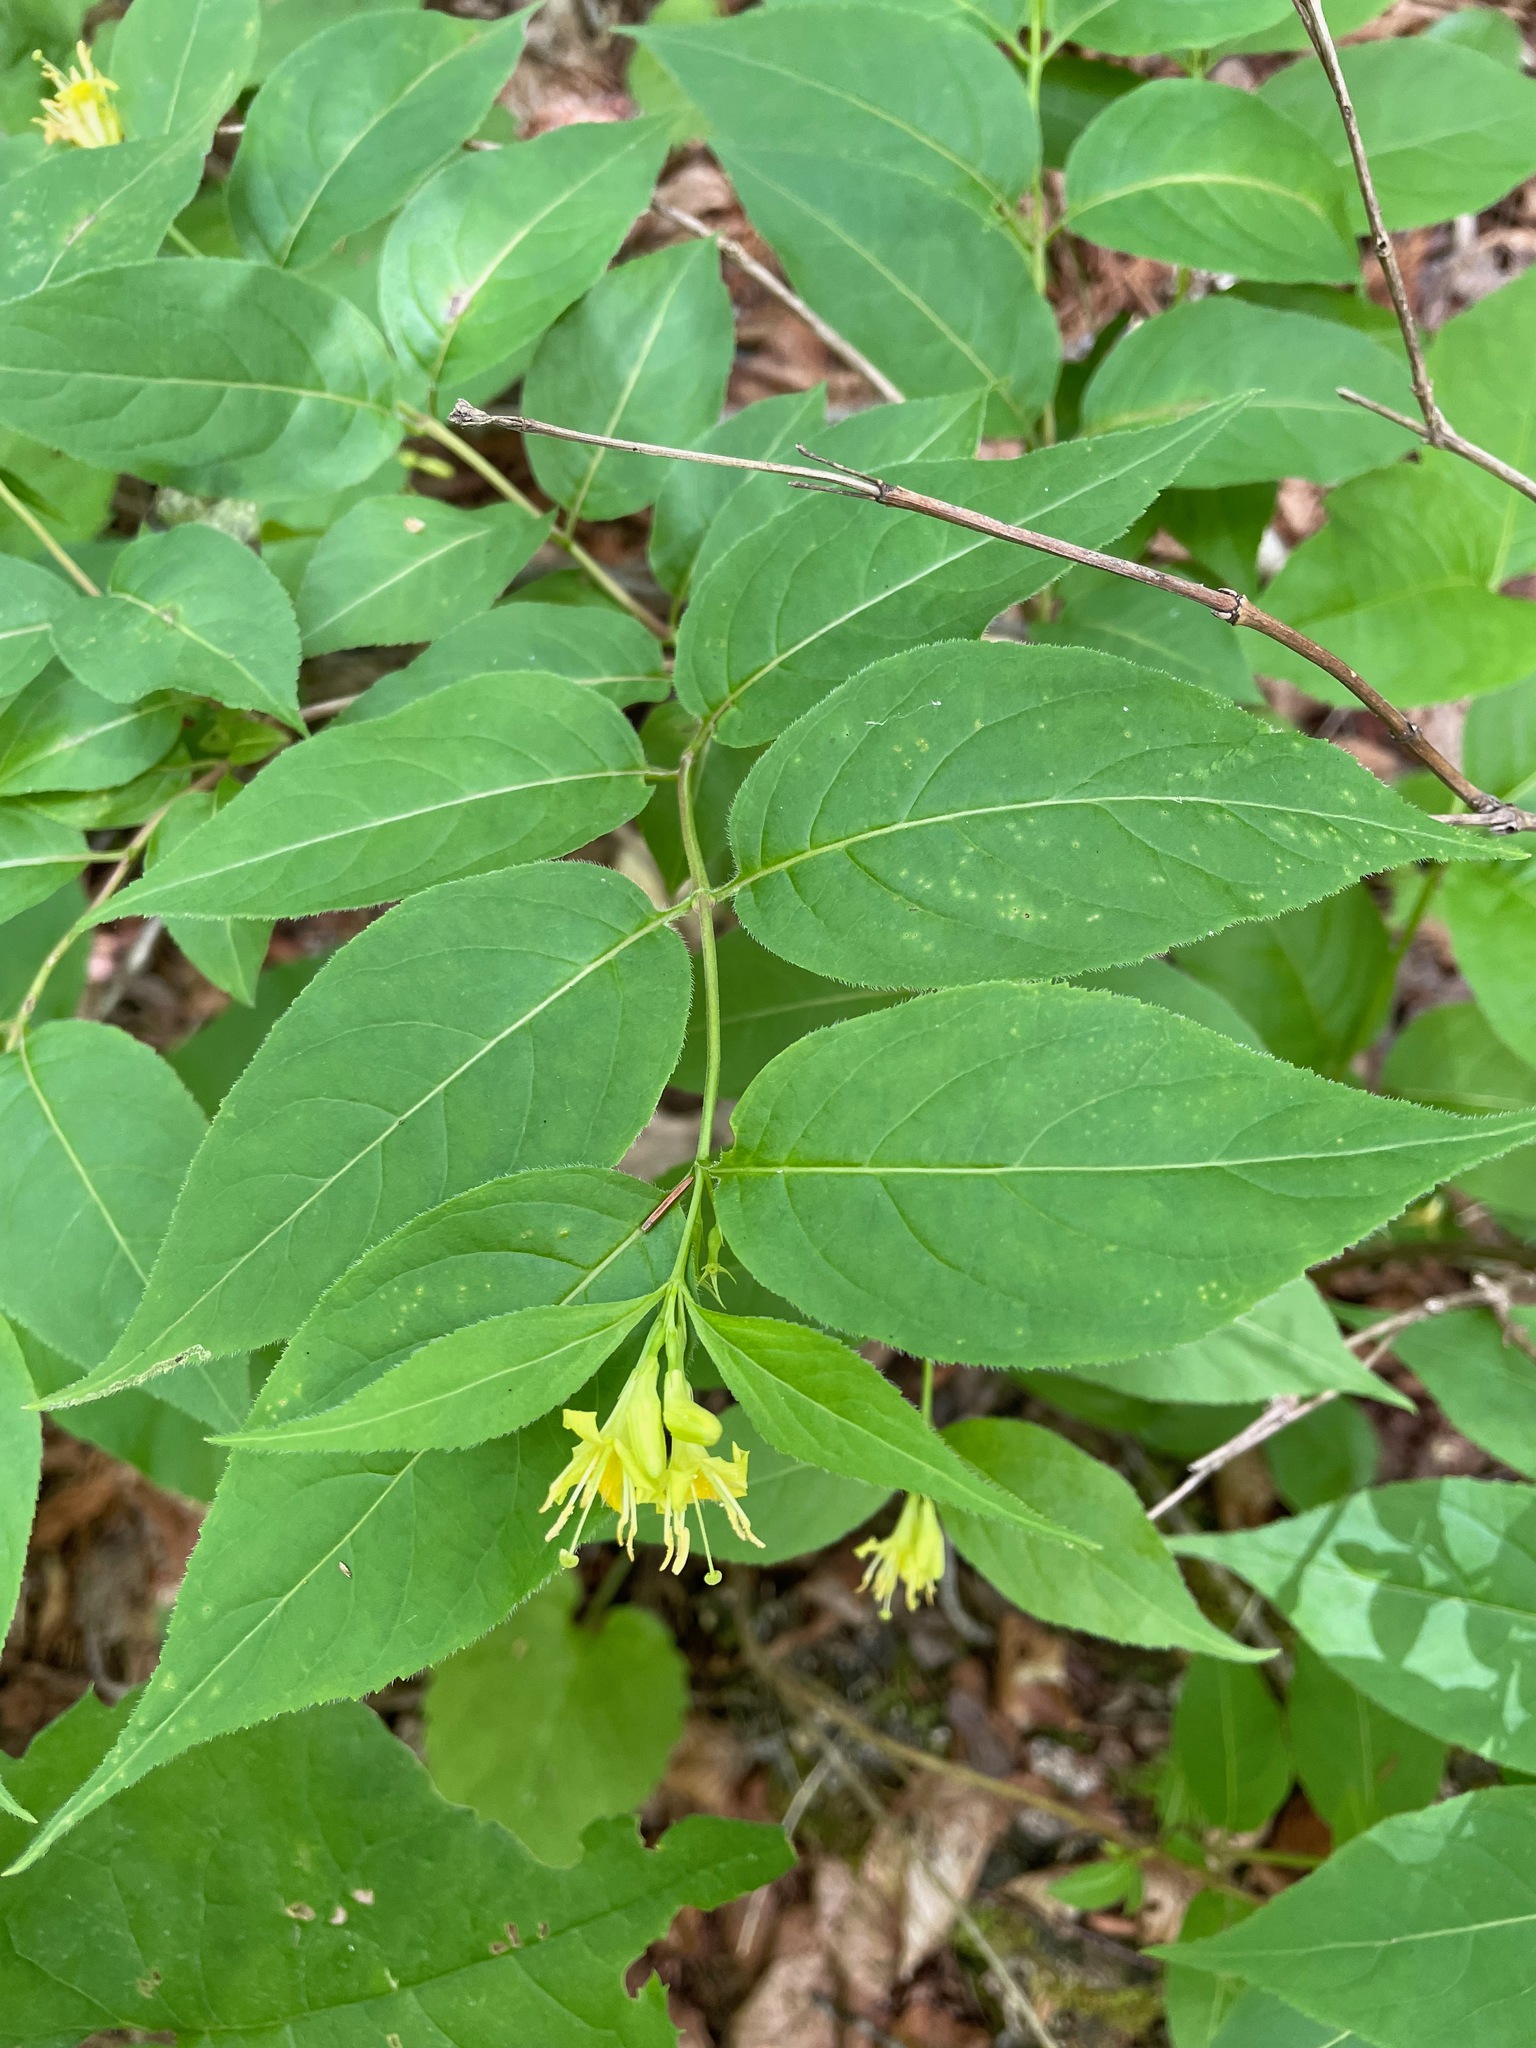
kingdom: Plantae
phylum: Tracheophyta
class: Magnoliopsida
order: Dipsacales
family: Caprifoliaceae
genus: Diervilla
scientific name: Diervilla lonicera
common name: Bush-honeysuckle
